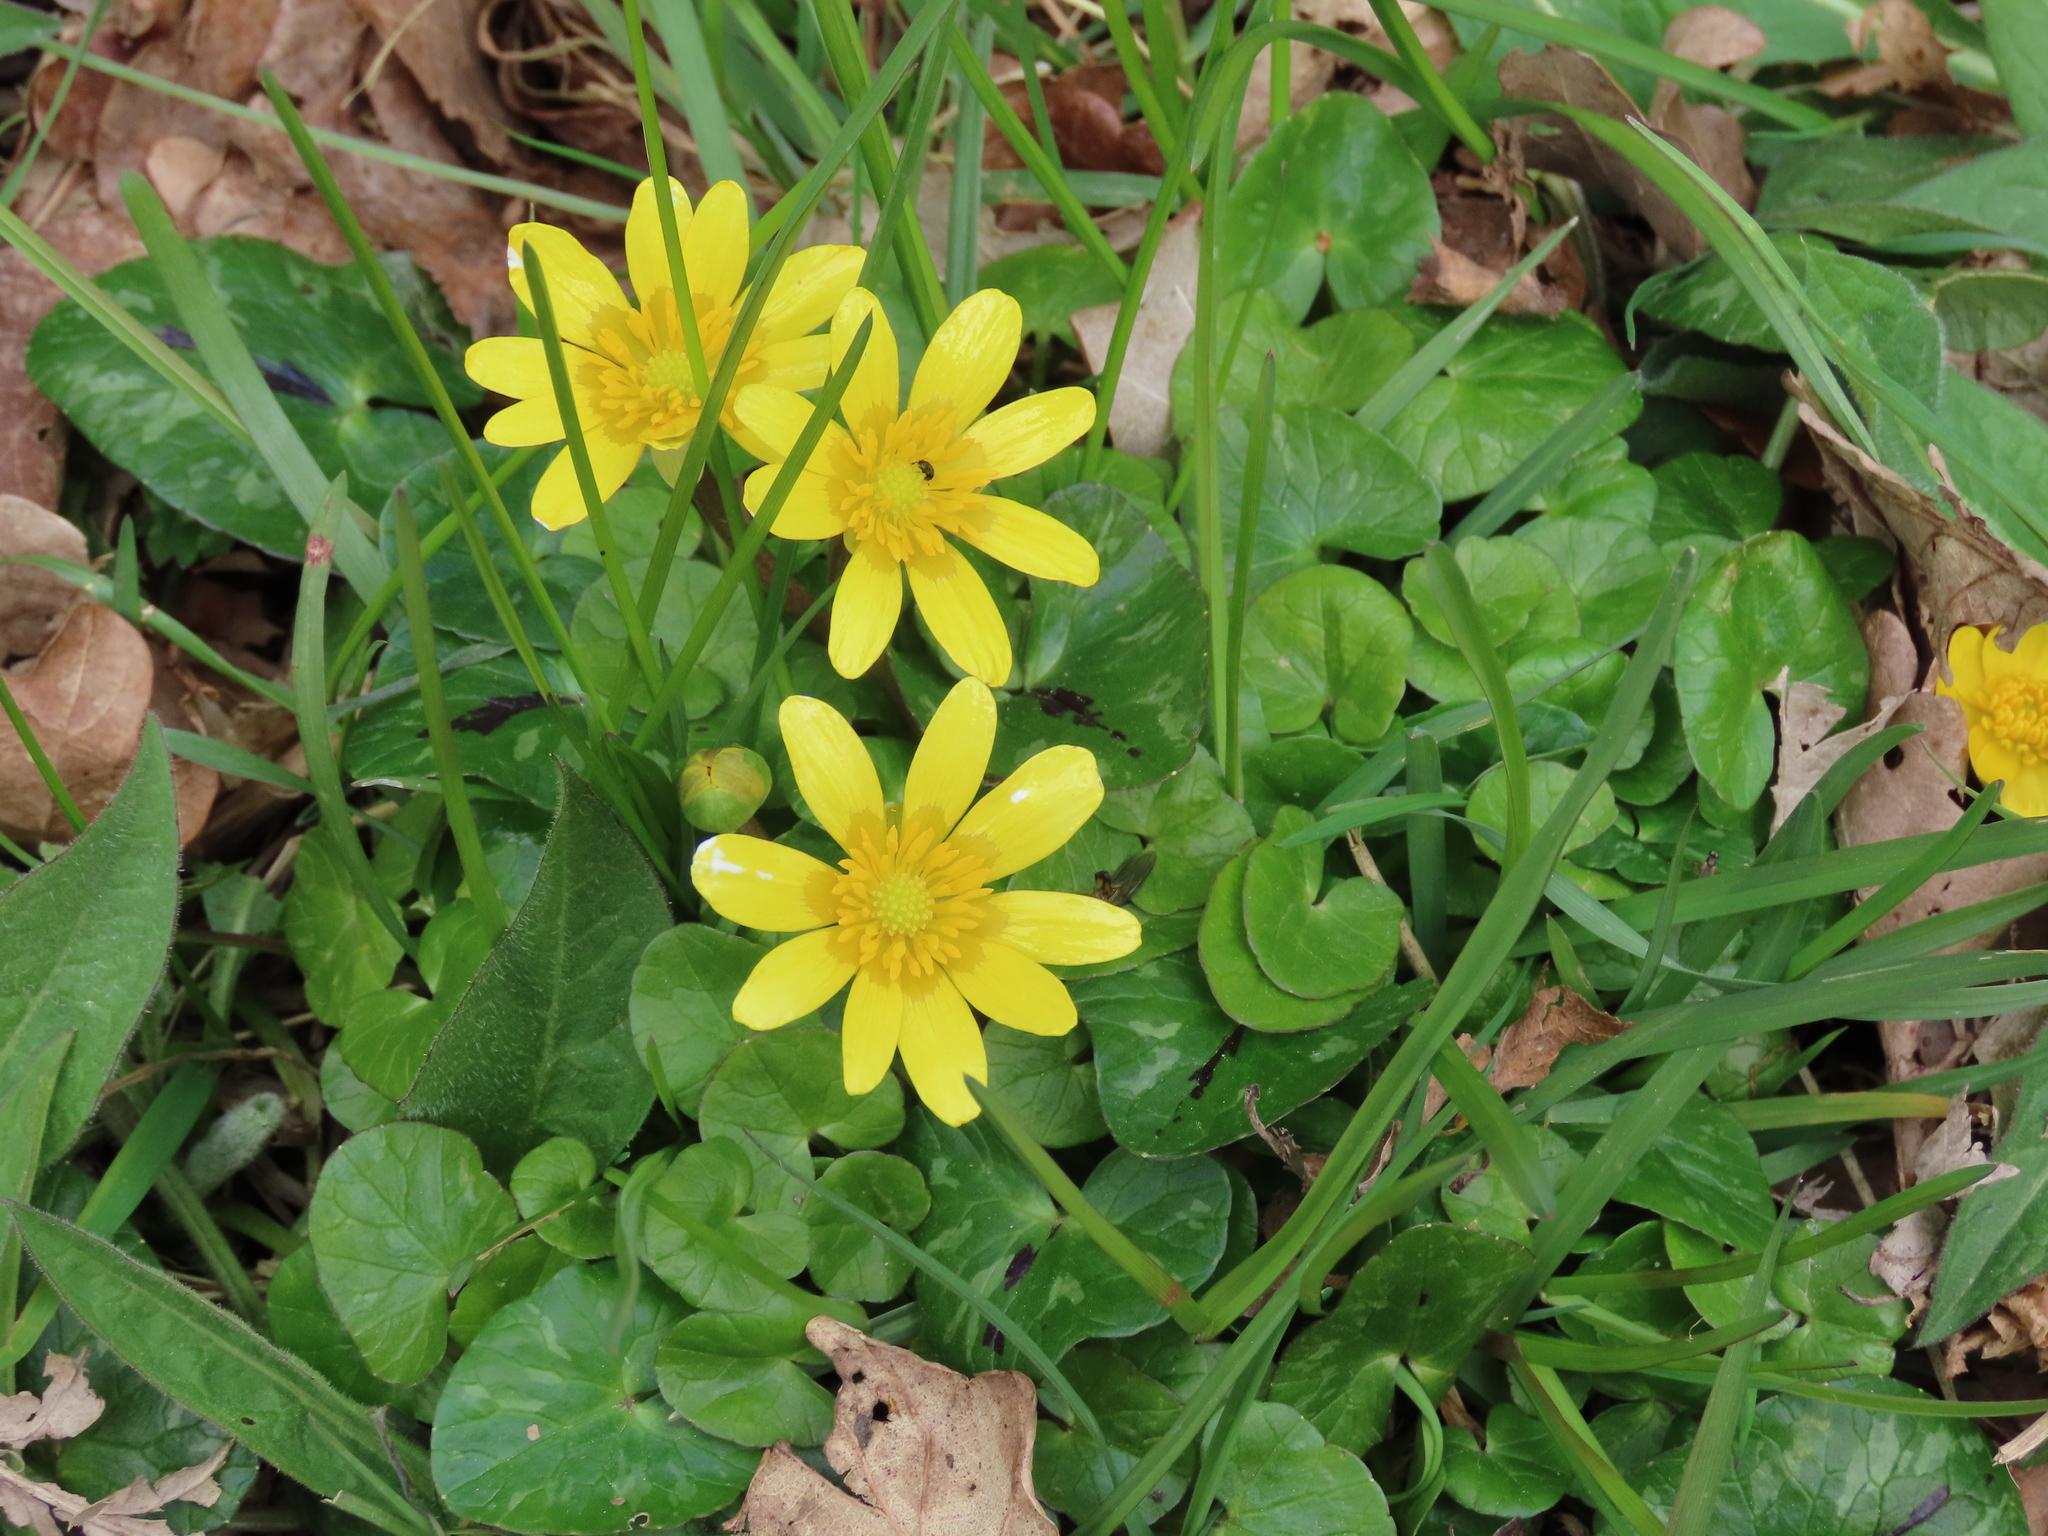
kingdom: Plantae
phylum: Tracheophyta
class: Magnoliopsida
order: Ranunculales
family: Ranunculaceae
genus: Ficaria
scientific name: Ficaria verna
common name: Lesser celandine
